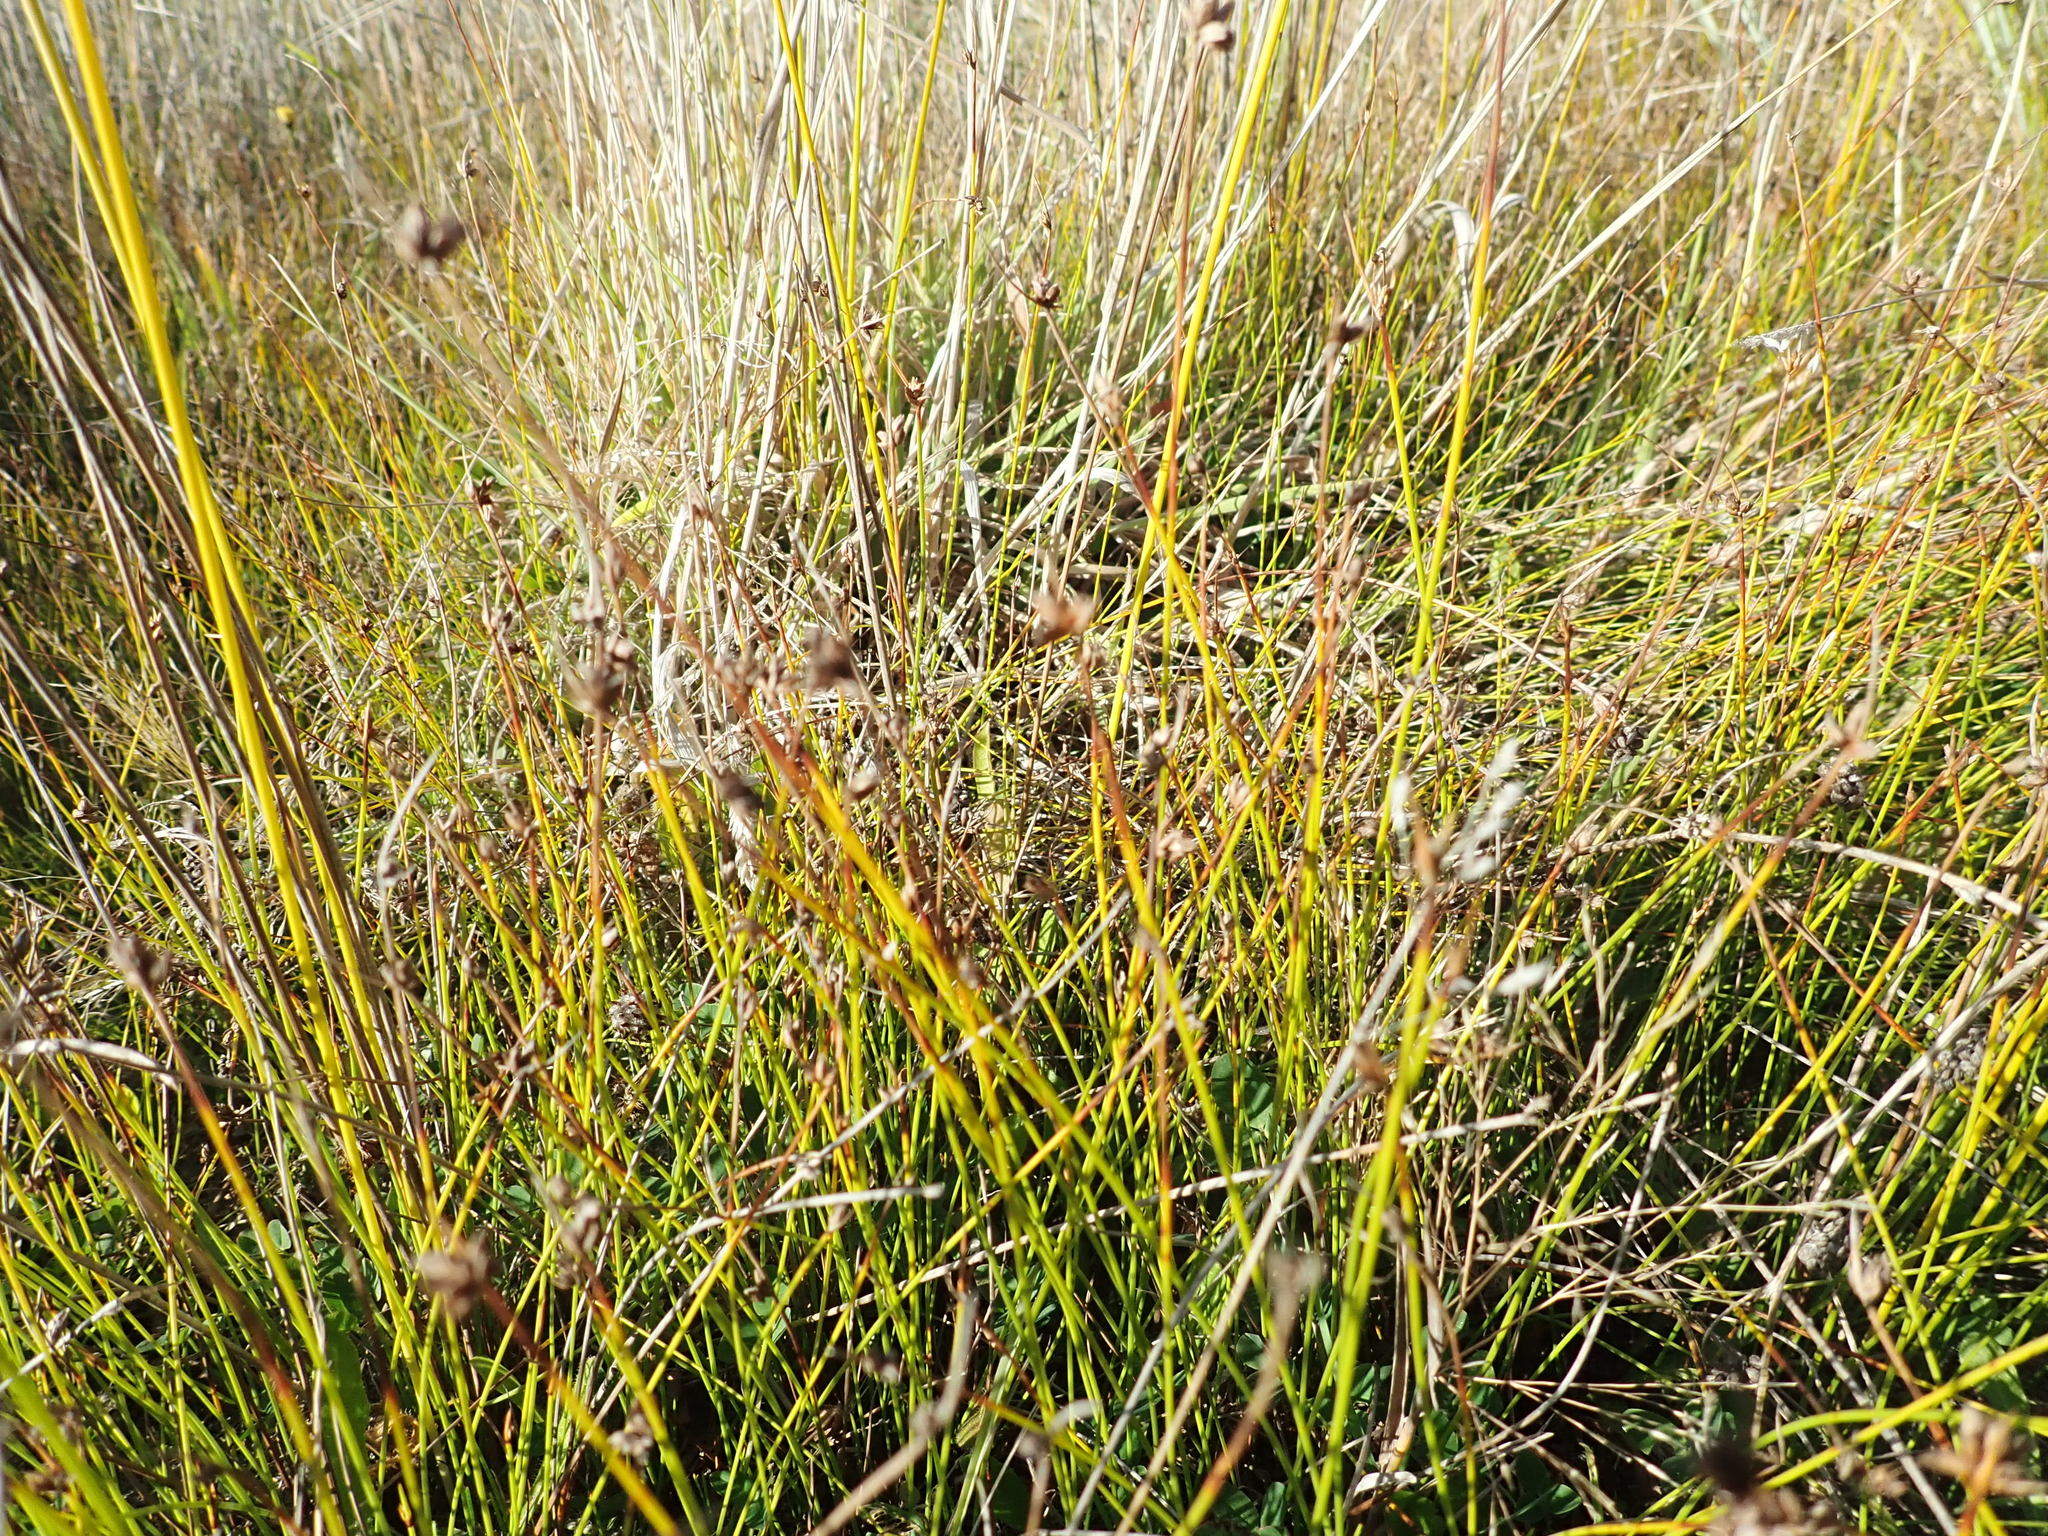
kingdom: Plantae
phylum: Tracheophyta
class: Liliopsida
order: Poales
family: Cyperaceae
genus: Schoenus
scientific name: Schoenus nitens
